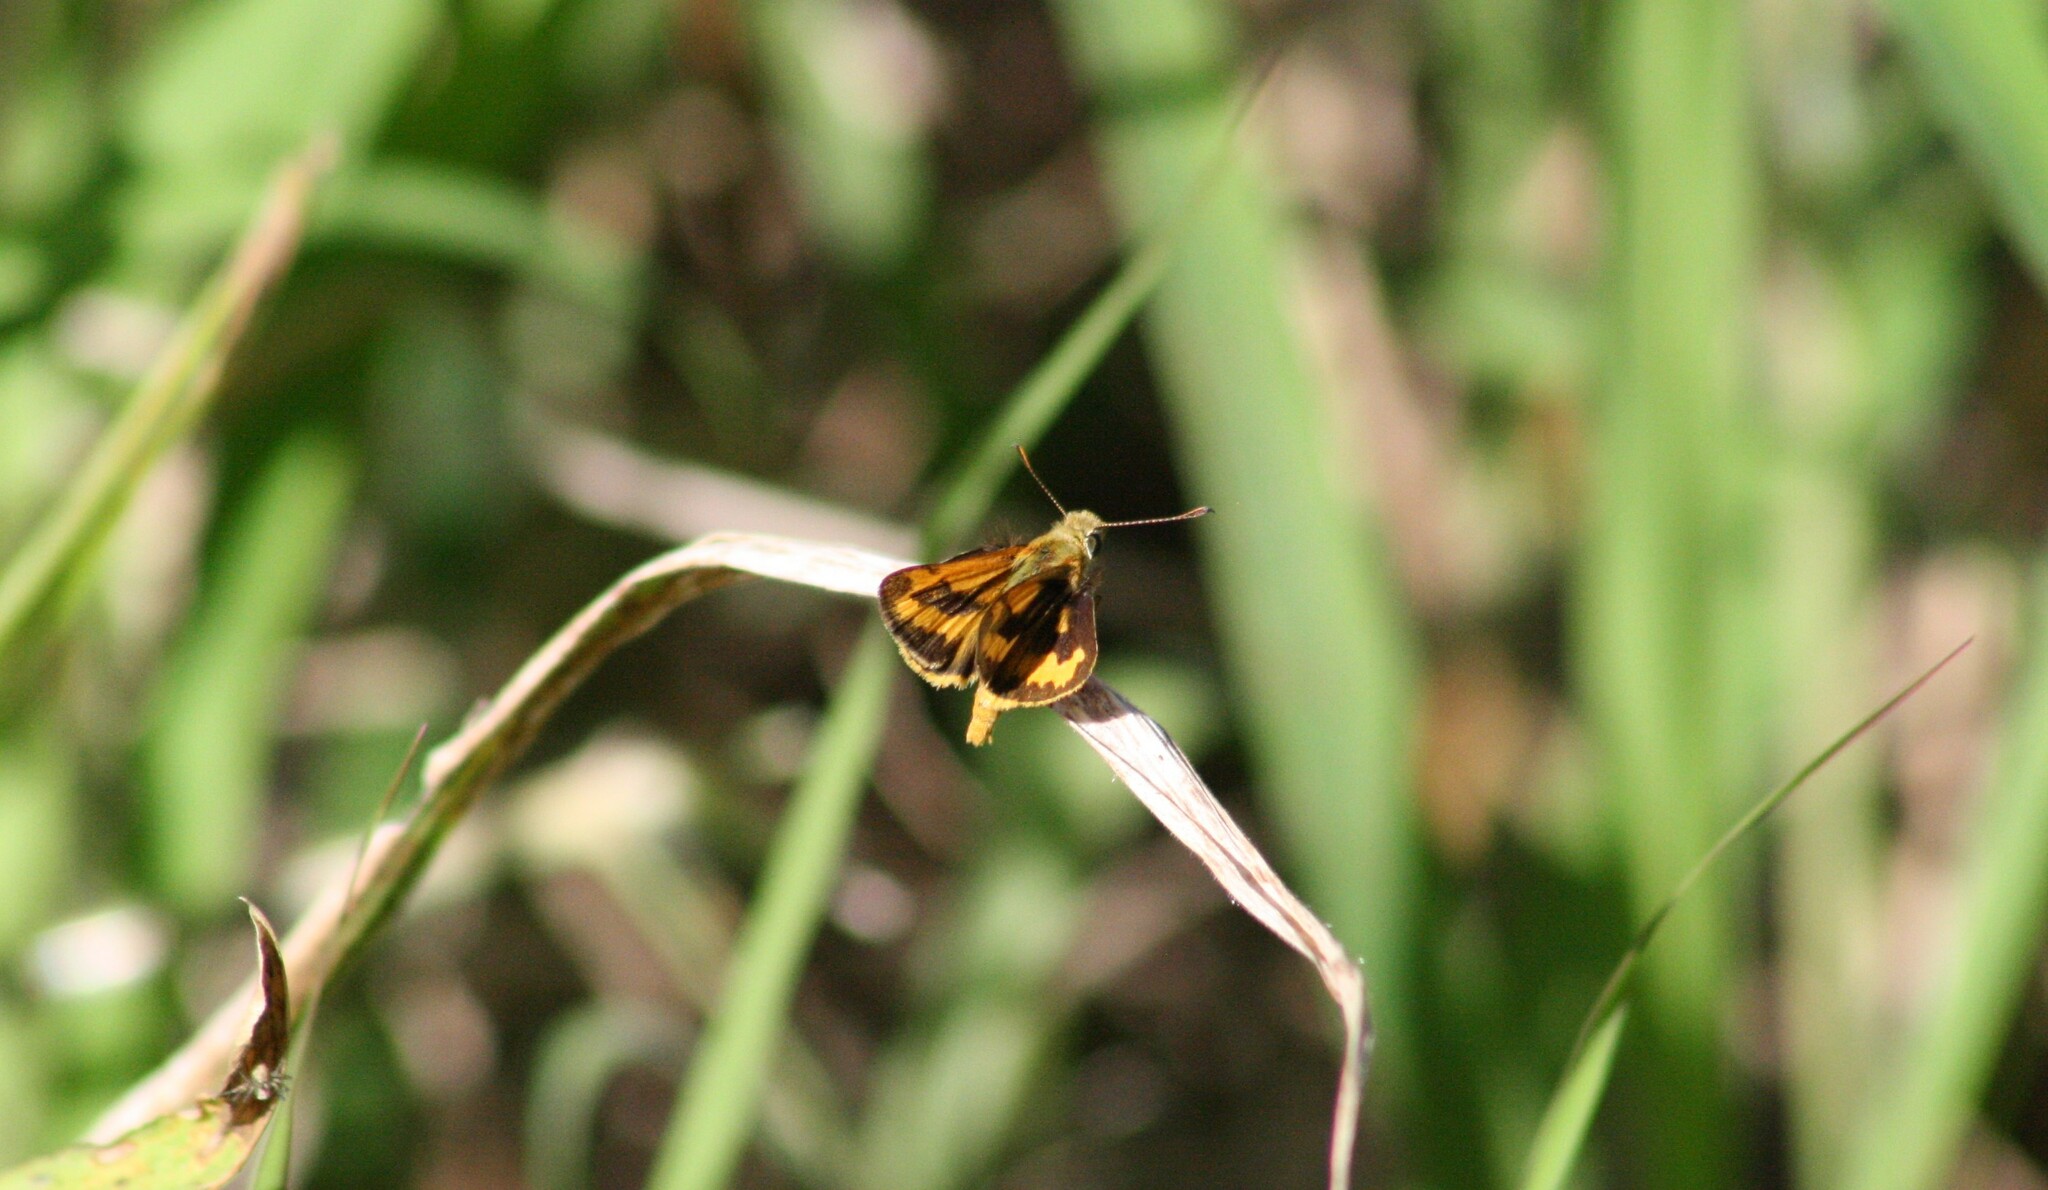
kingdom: Animalia
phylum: Arthropoda
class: Insecta
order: Lepidoptera
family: Hesperiidae
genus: Ocybadistes
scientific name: Ocybadistes walkeri
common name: Yellow-banded dart
